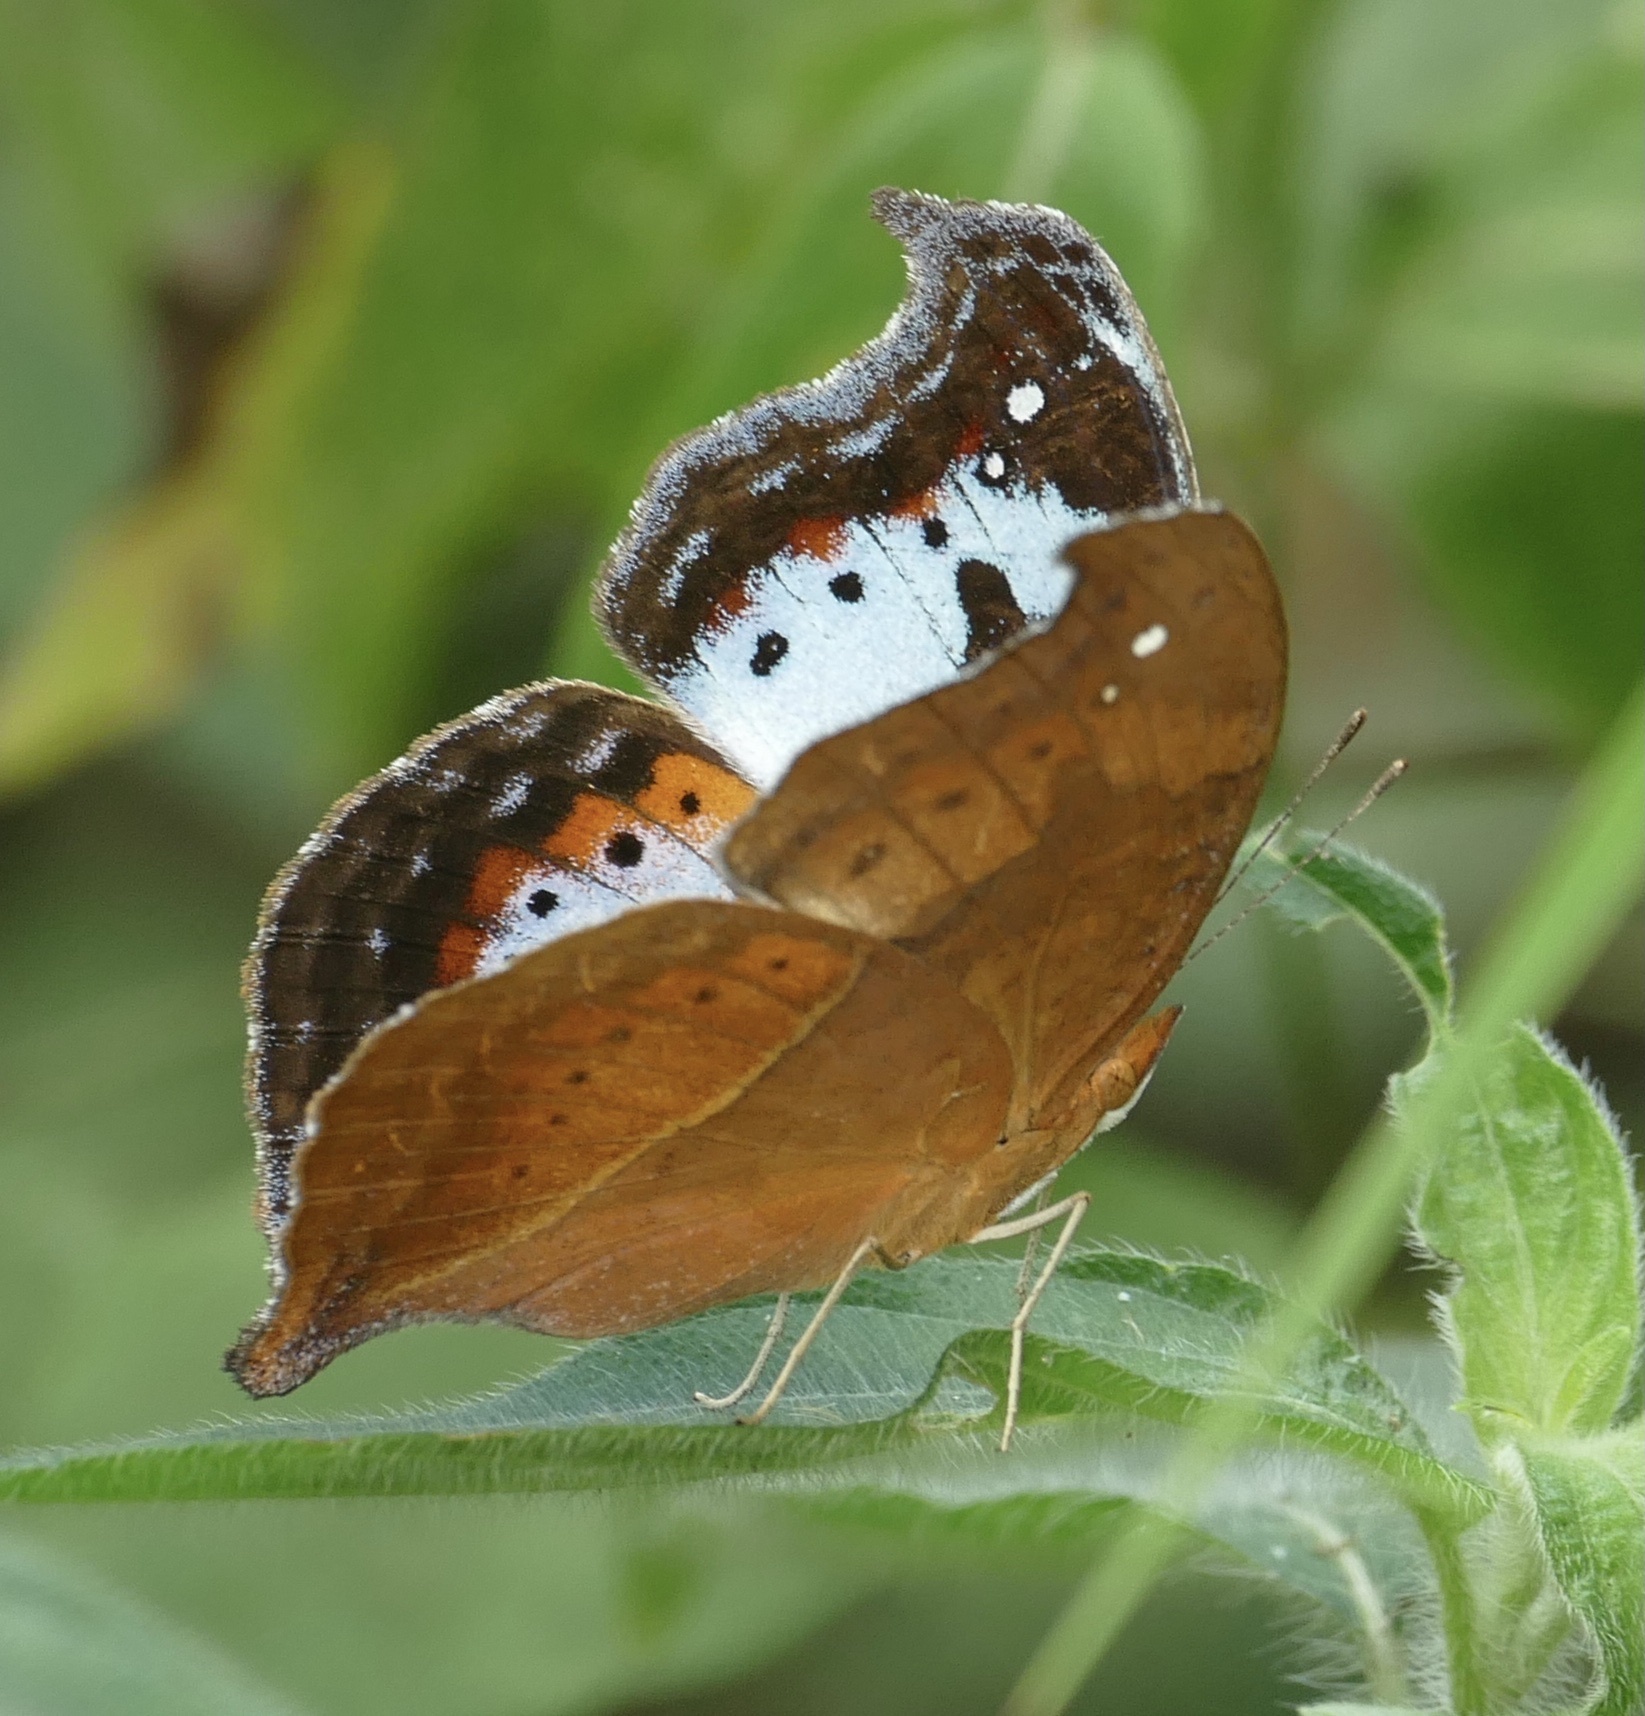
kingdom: Animalia
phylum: Arthropoda
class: Insecta
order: Lepidoptera
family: Nymphalidae
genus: Precis
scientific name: Precis pelarga
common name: Fashion commodore
